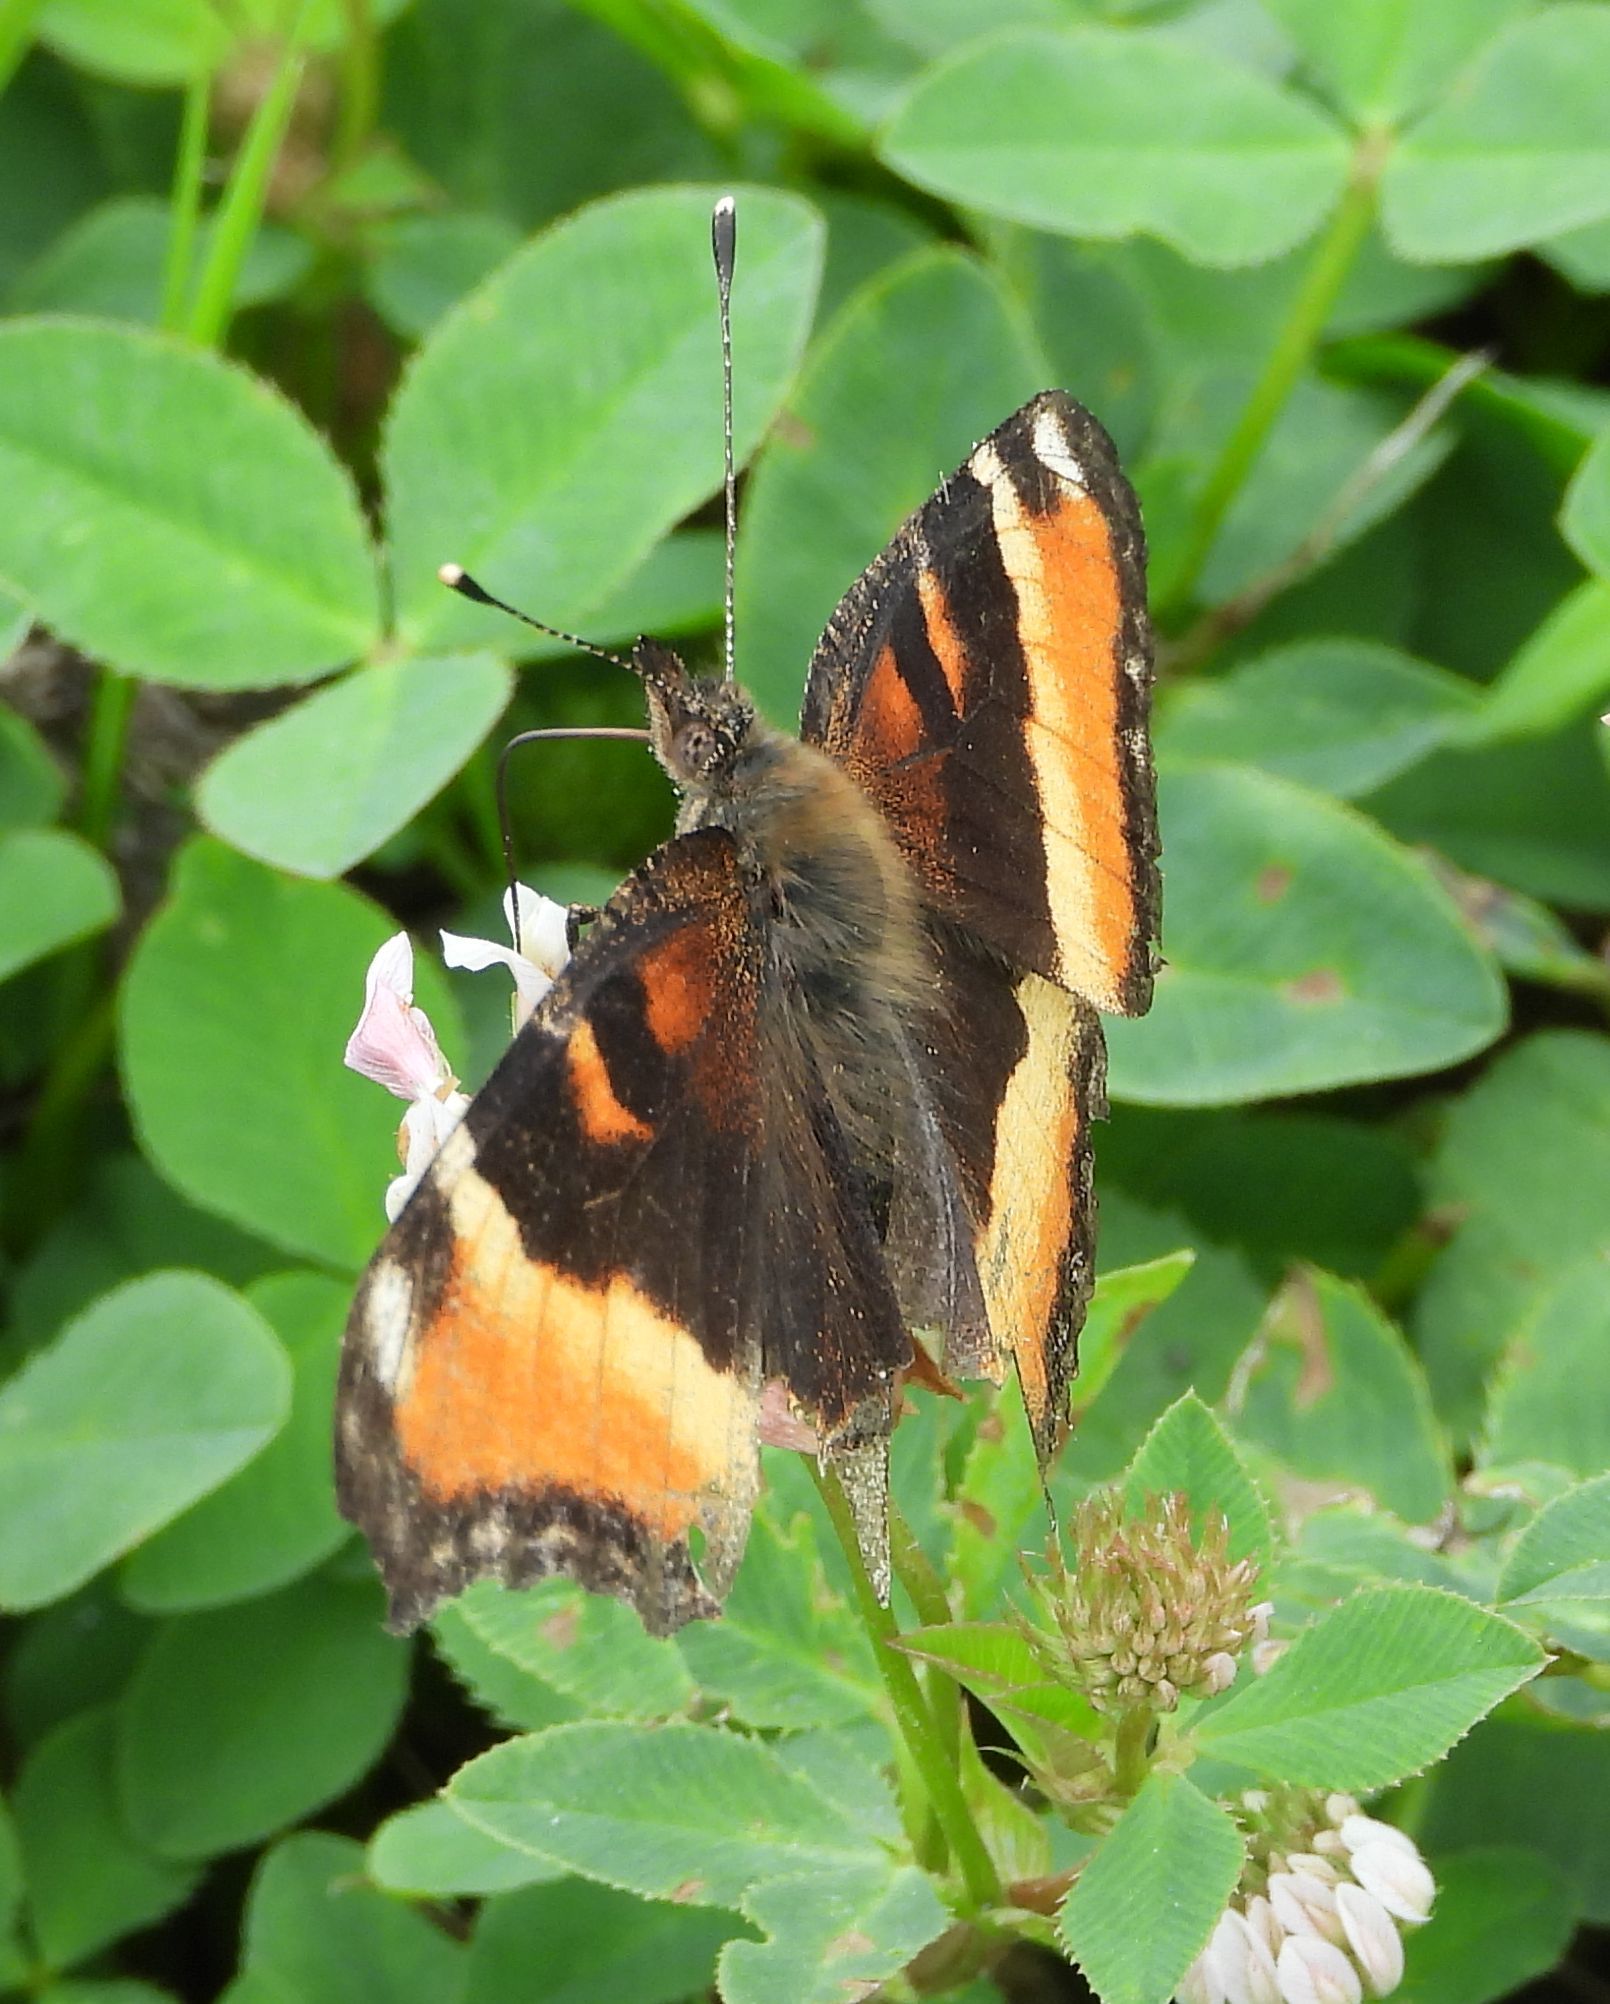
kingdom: Animalia
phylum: Arthropoda
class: Insecta
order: Lepidoptera
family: Nymphalidae
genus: Aglais
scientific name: Aglais milberti
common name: Milbert's tortoiseshell
